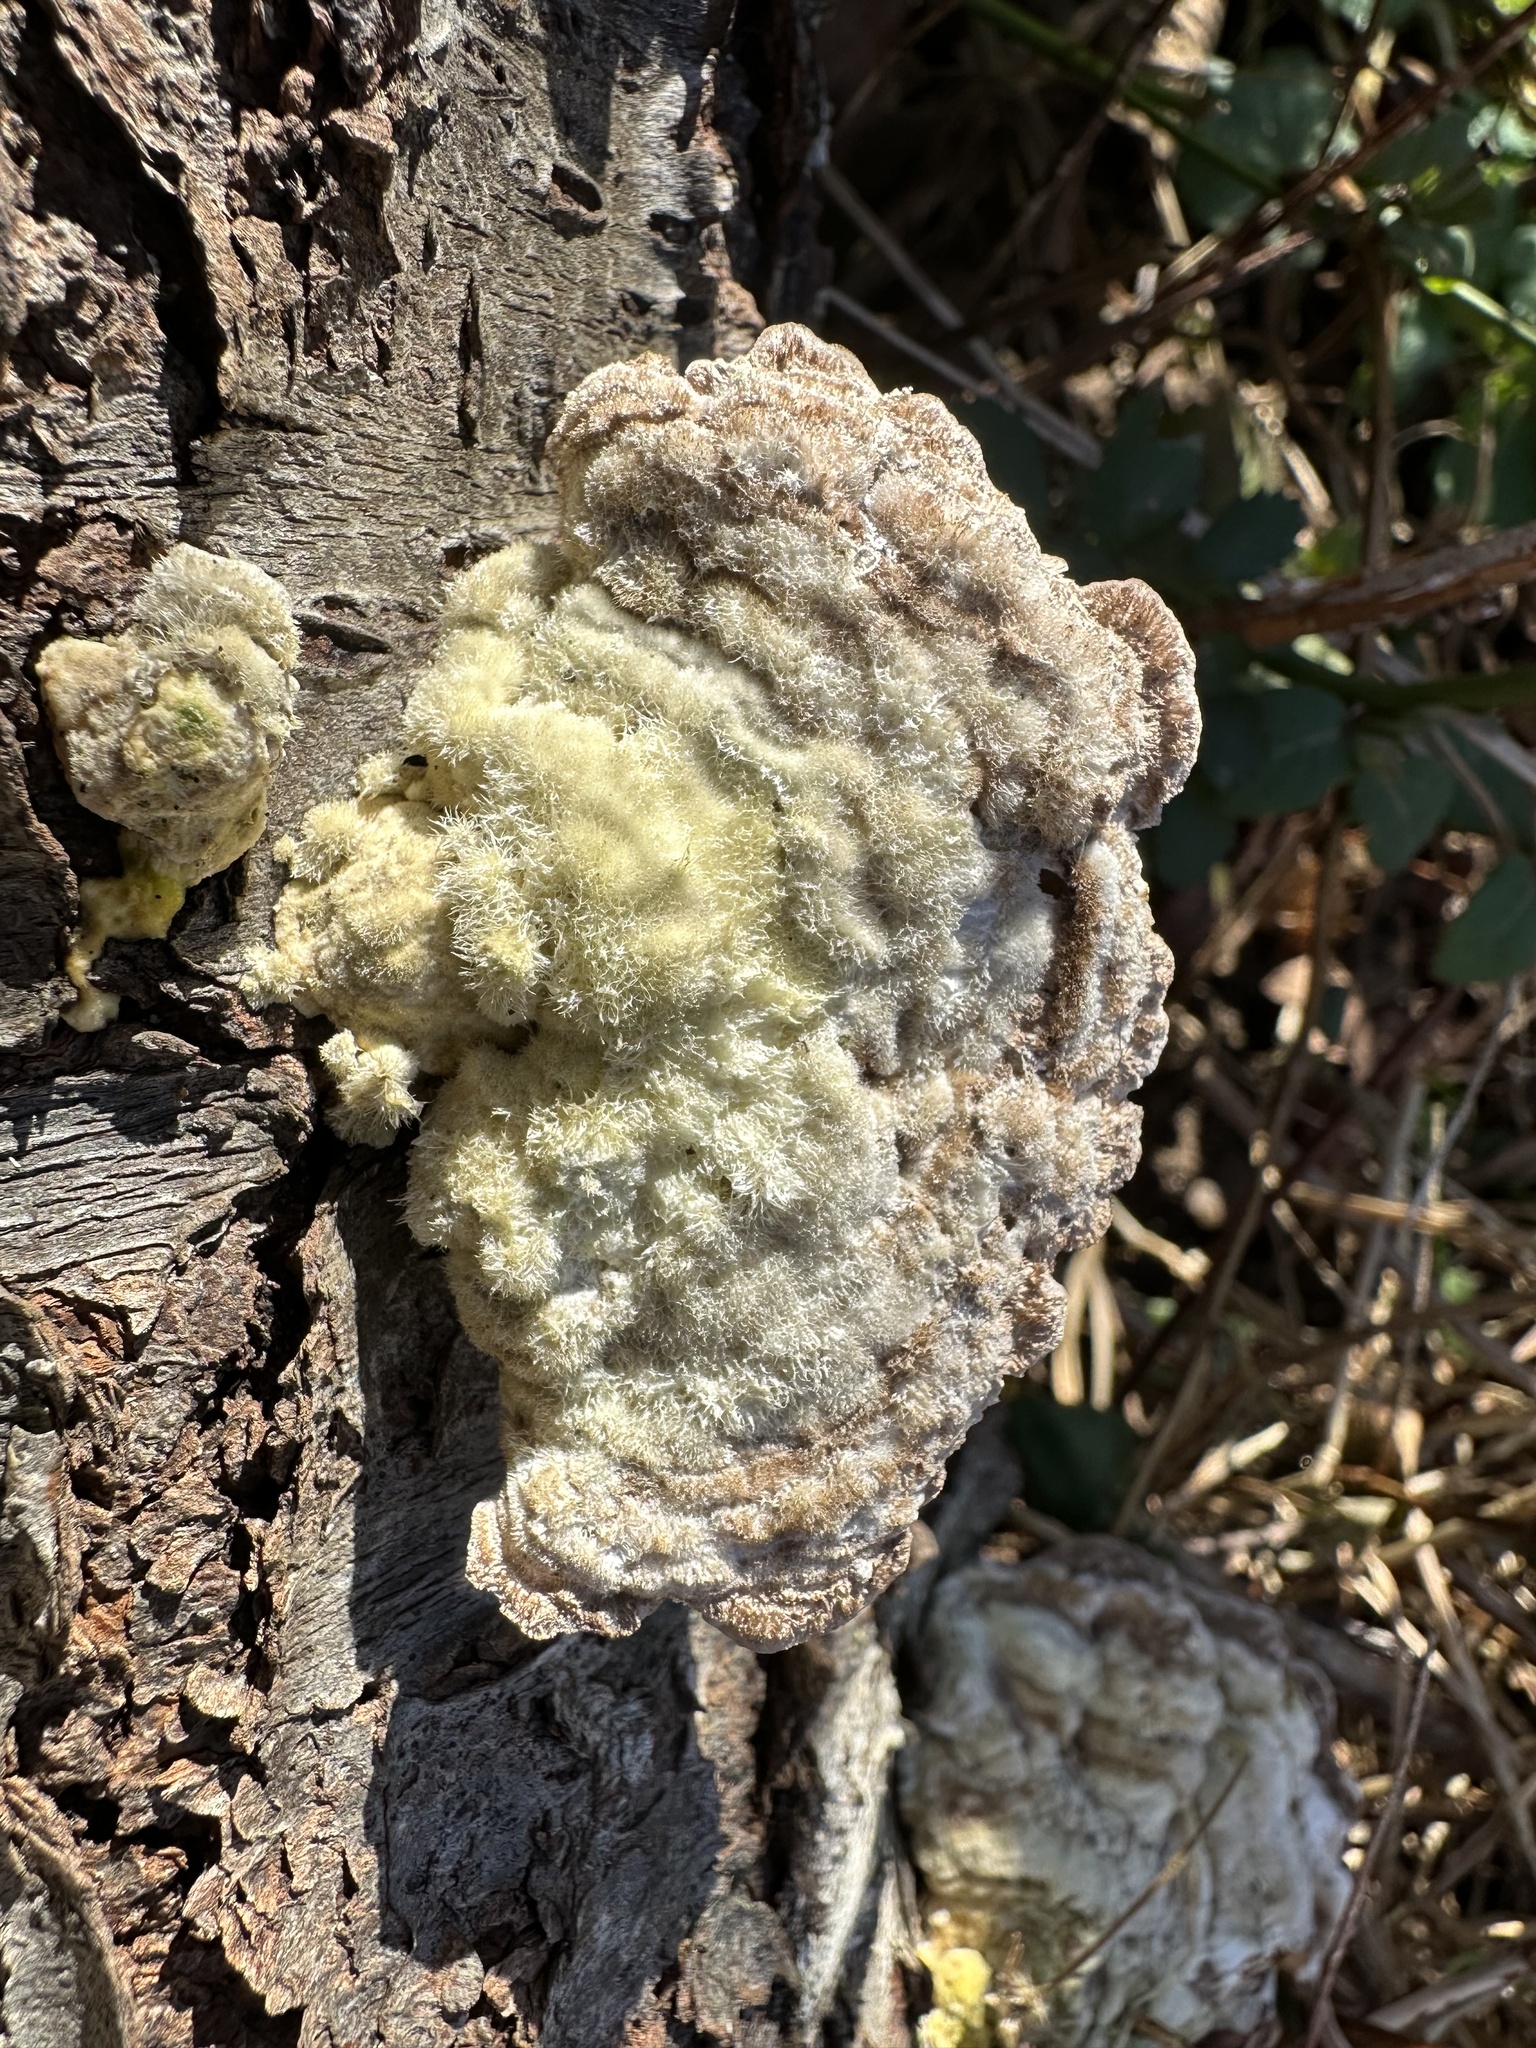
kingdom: Fungi
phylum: Basidiomycota
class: Agaricomycetes
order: Polyporales
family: Polyporaceae
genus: Trametes
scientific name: Trametes hirsuta
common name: Hairy bracket
